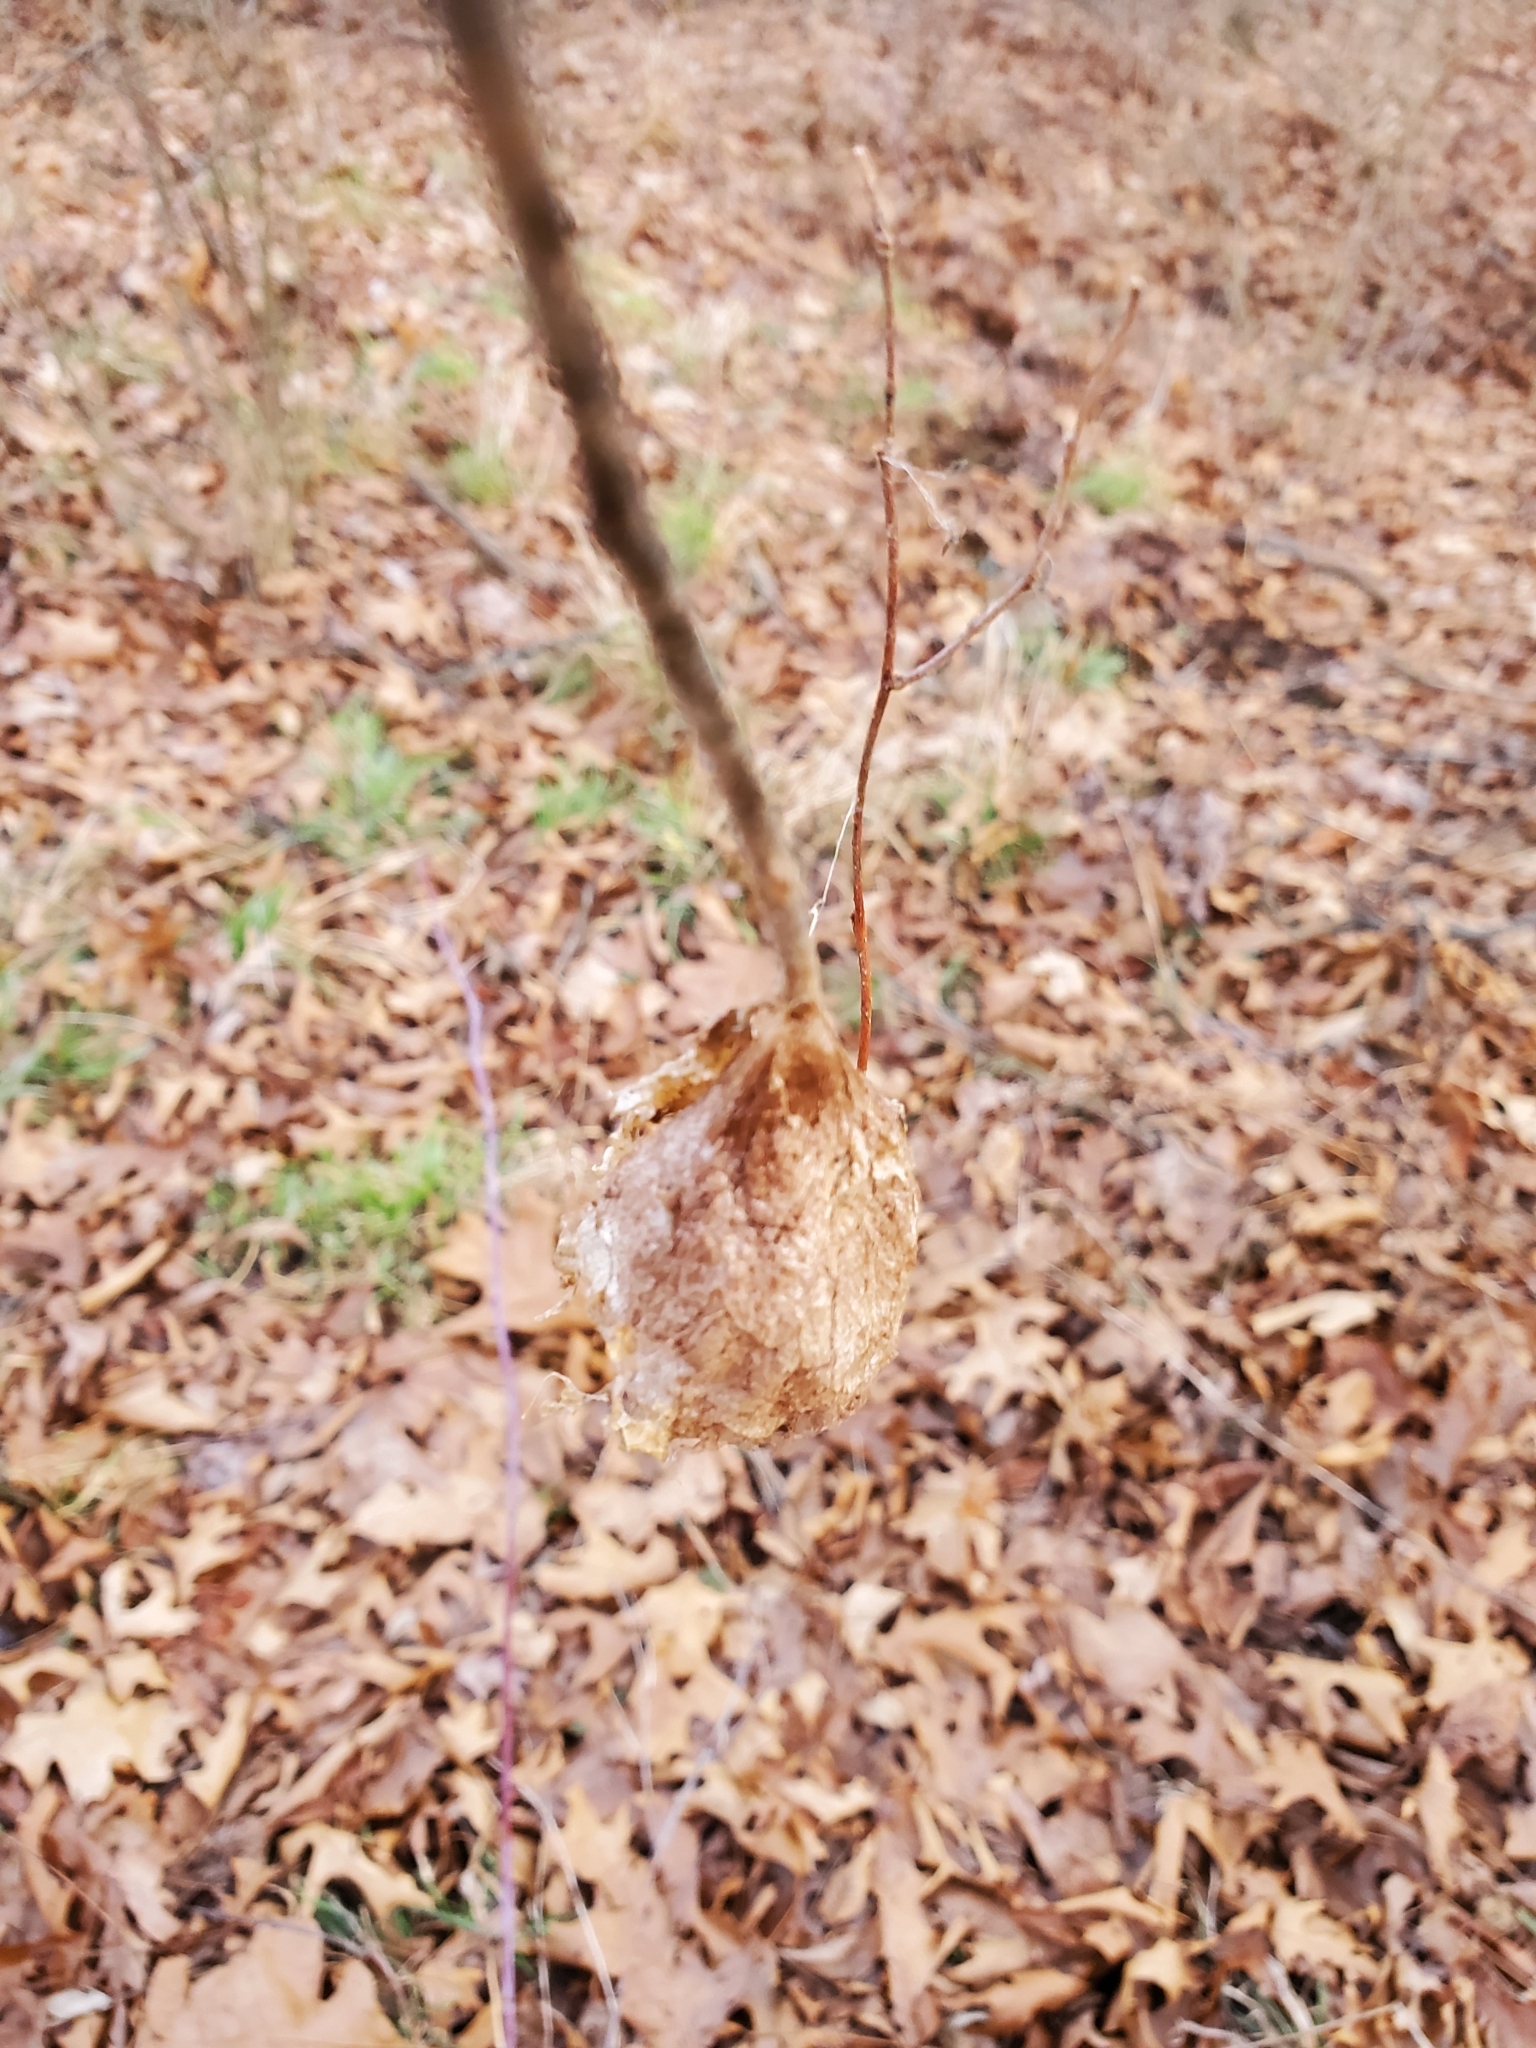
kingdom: Animalia
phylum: Arthropoda
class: Insecta
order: Lepidoptera
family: Saturniidae
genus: Hyalophora
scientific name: Hyalophora cecropia
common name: Cecropia silkmoth
